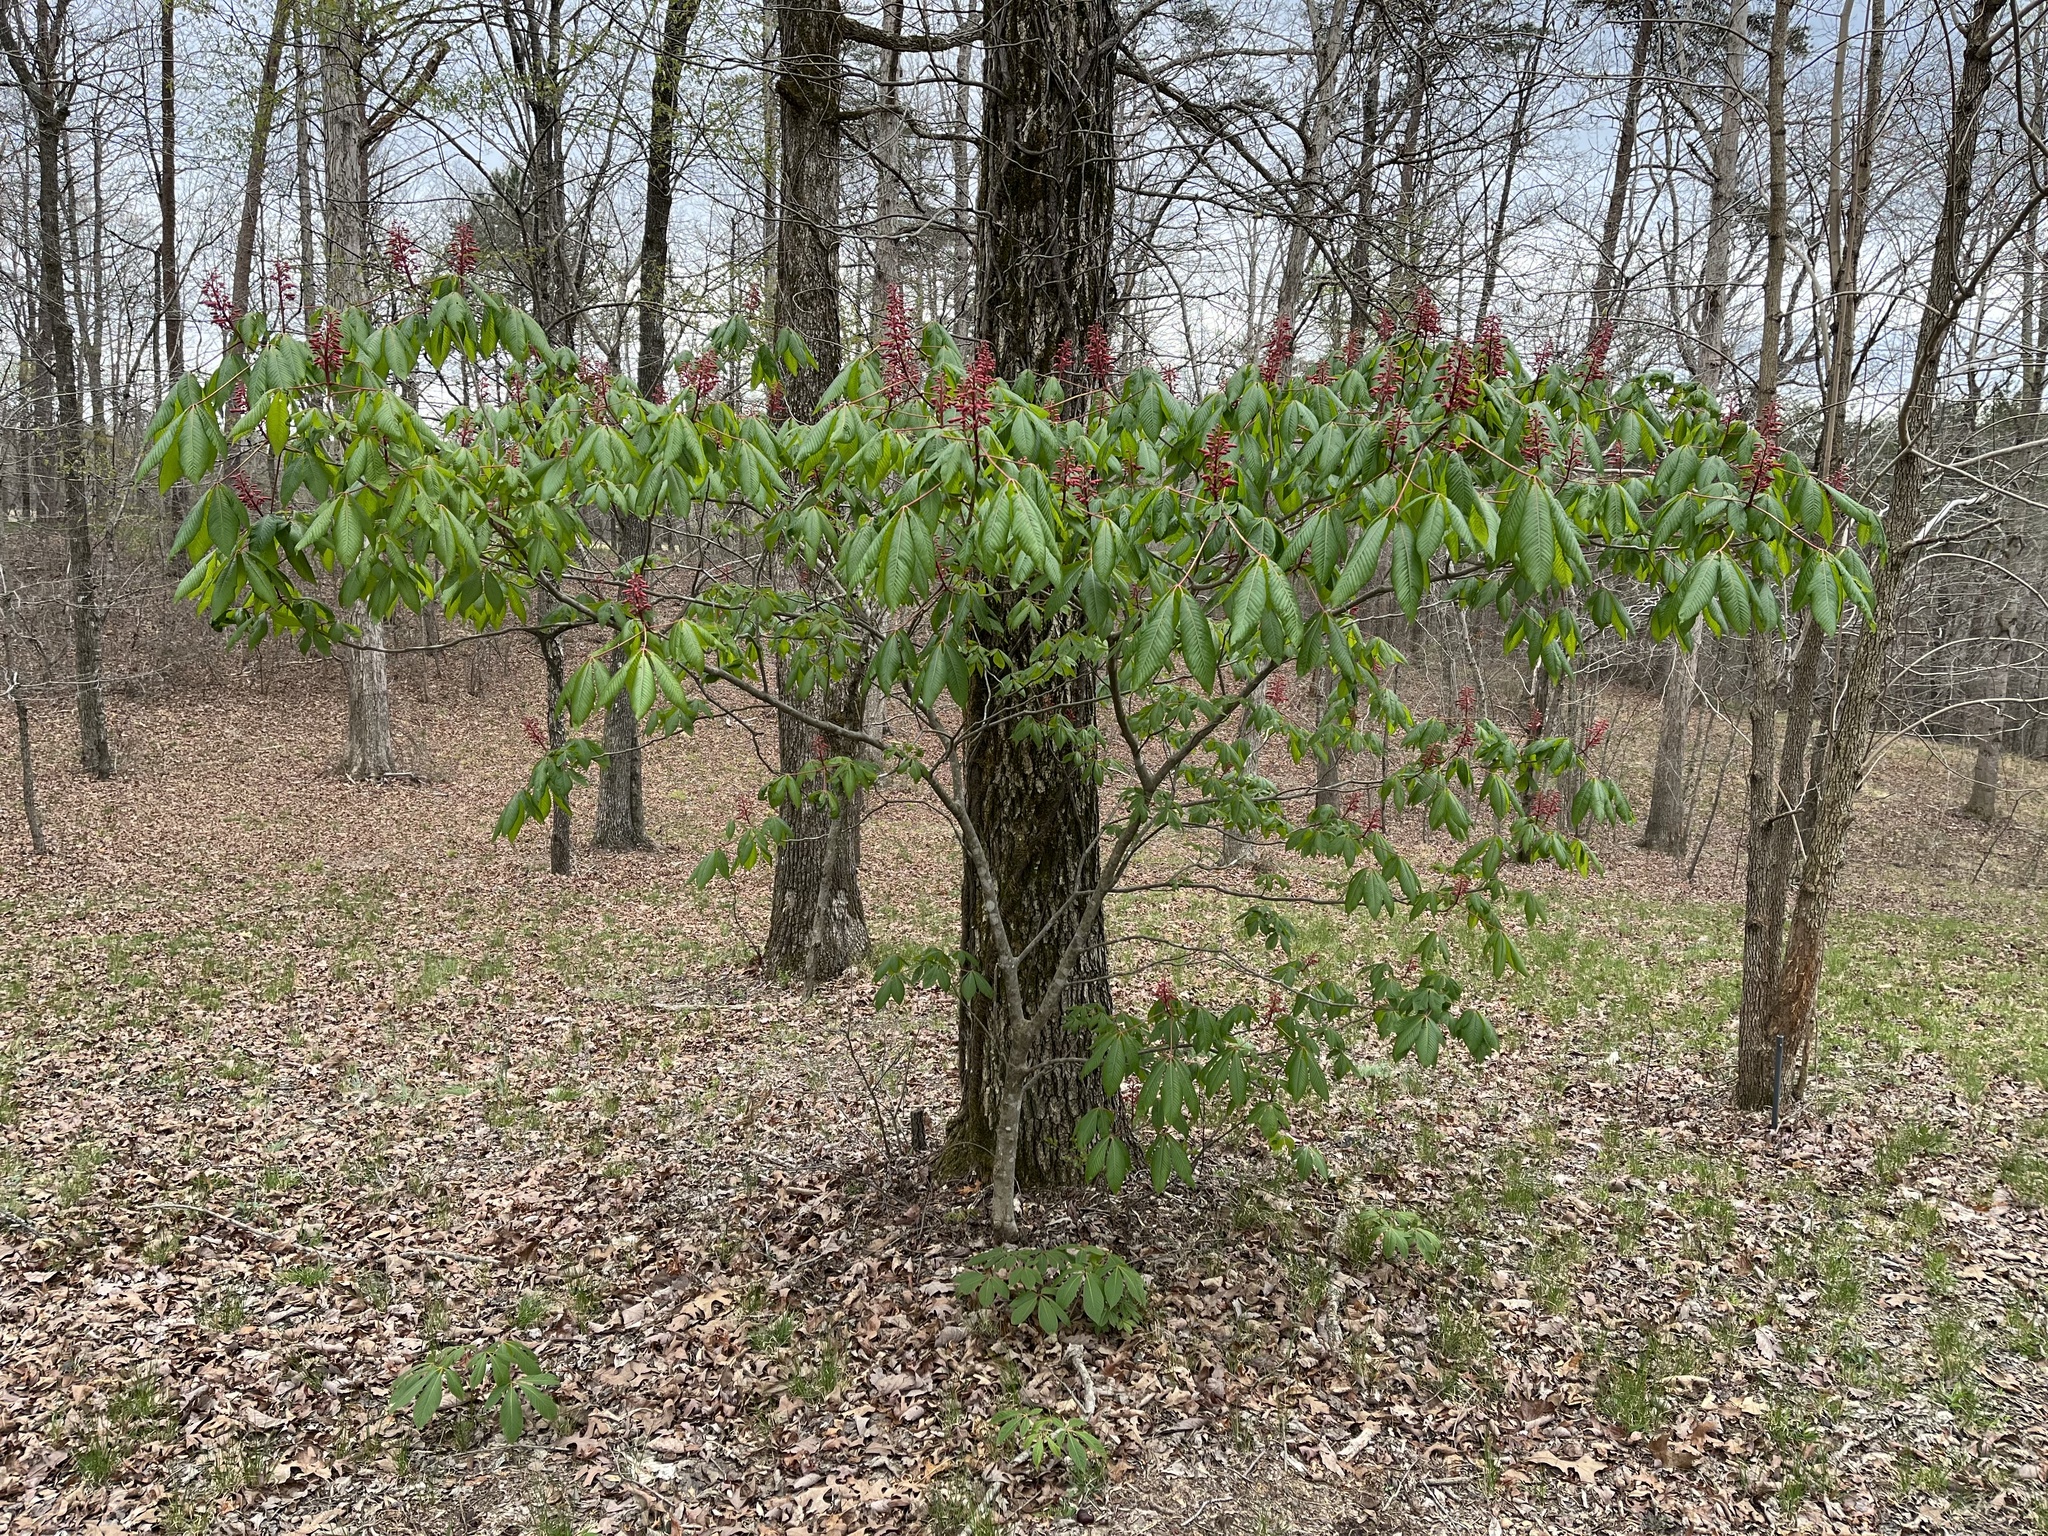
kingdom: Plantae
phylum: Tracheophyta
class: Magnoliopsida
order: Sapindales
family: Sapindaceae
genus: Aesculus
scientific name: Aesculus pavia
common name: Red buckeye
